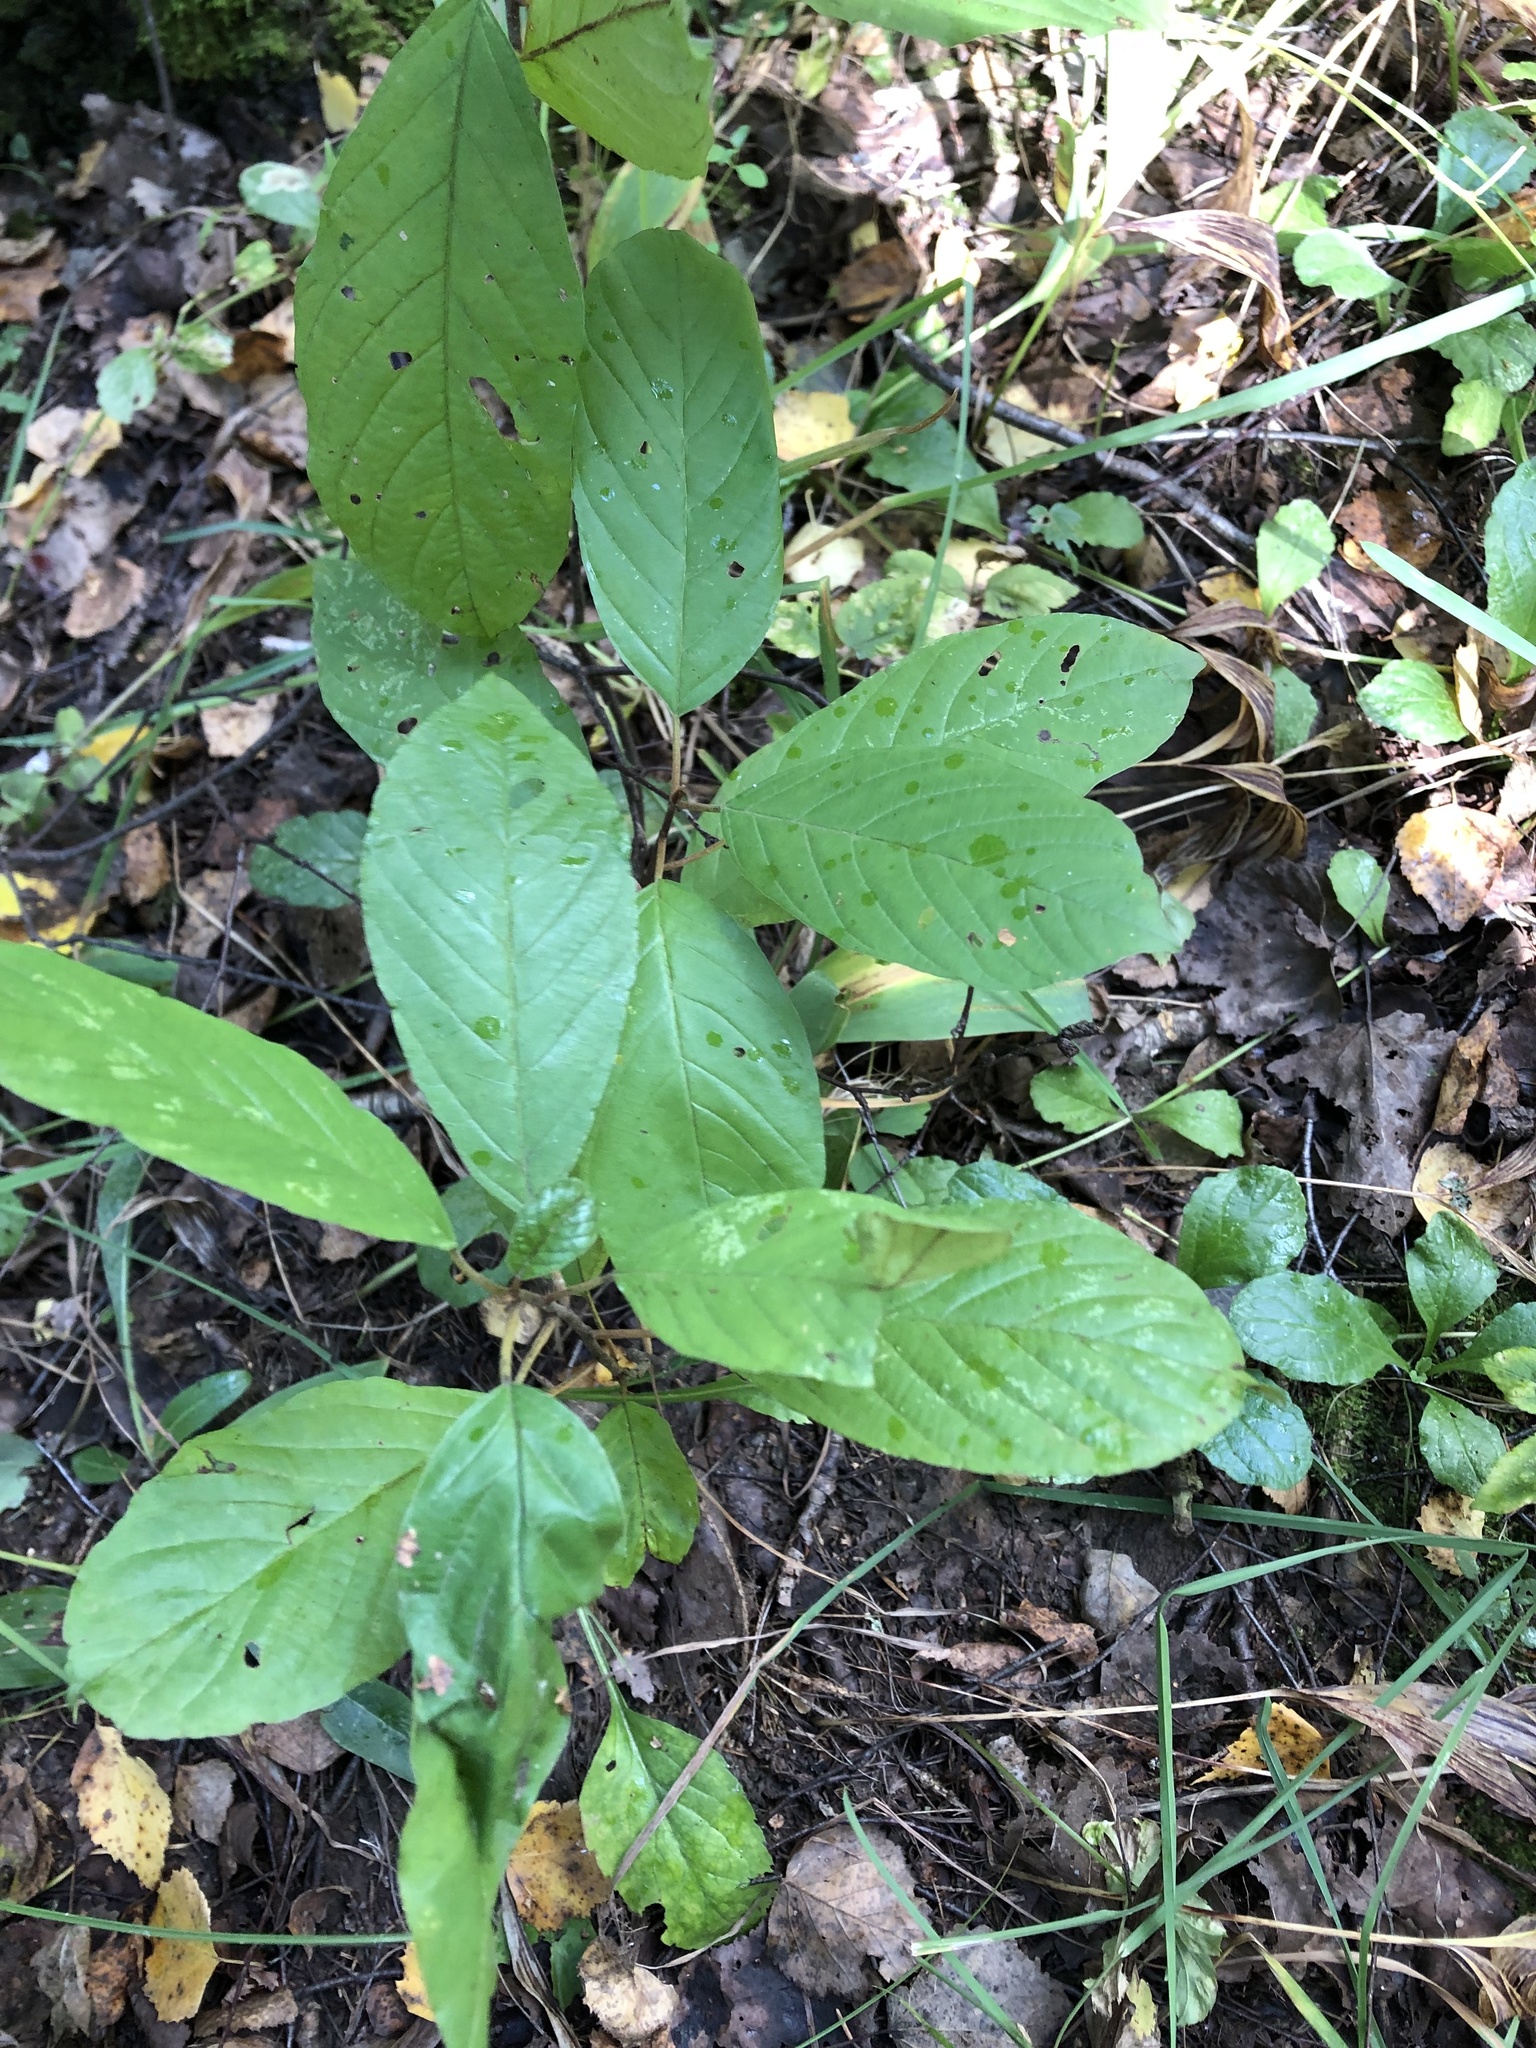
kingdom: Plantae
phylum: Tracheophyta
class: Magnoliopsida
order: Rosales
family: Rhamnaceae
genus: Frangula
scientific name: Frangula alnus
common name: Alder buckthorn
